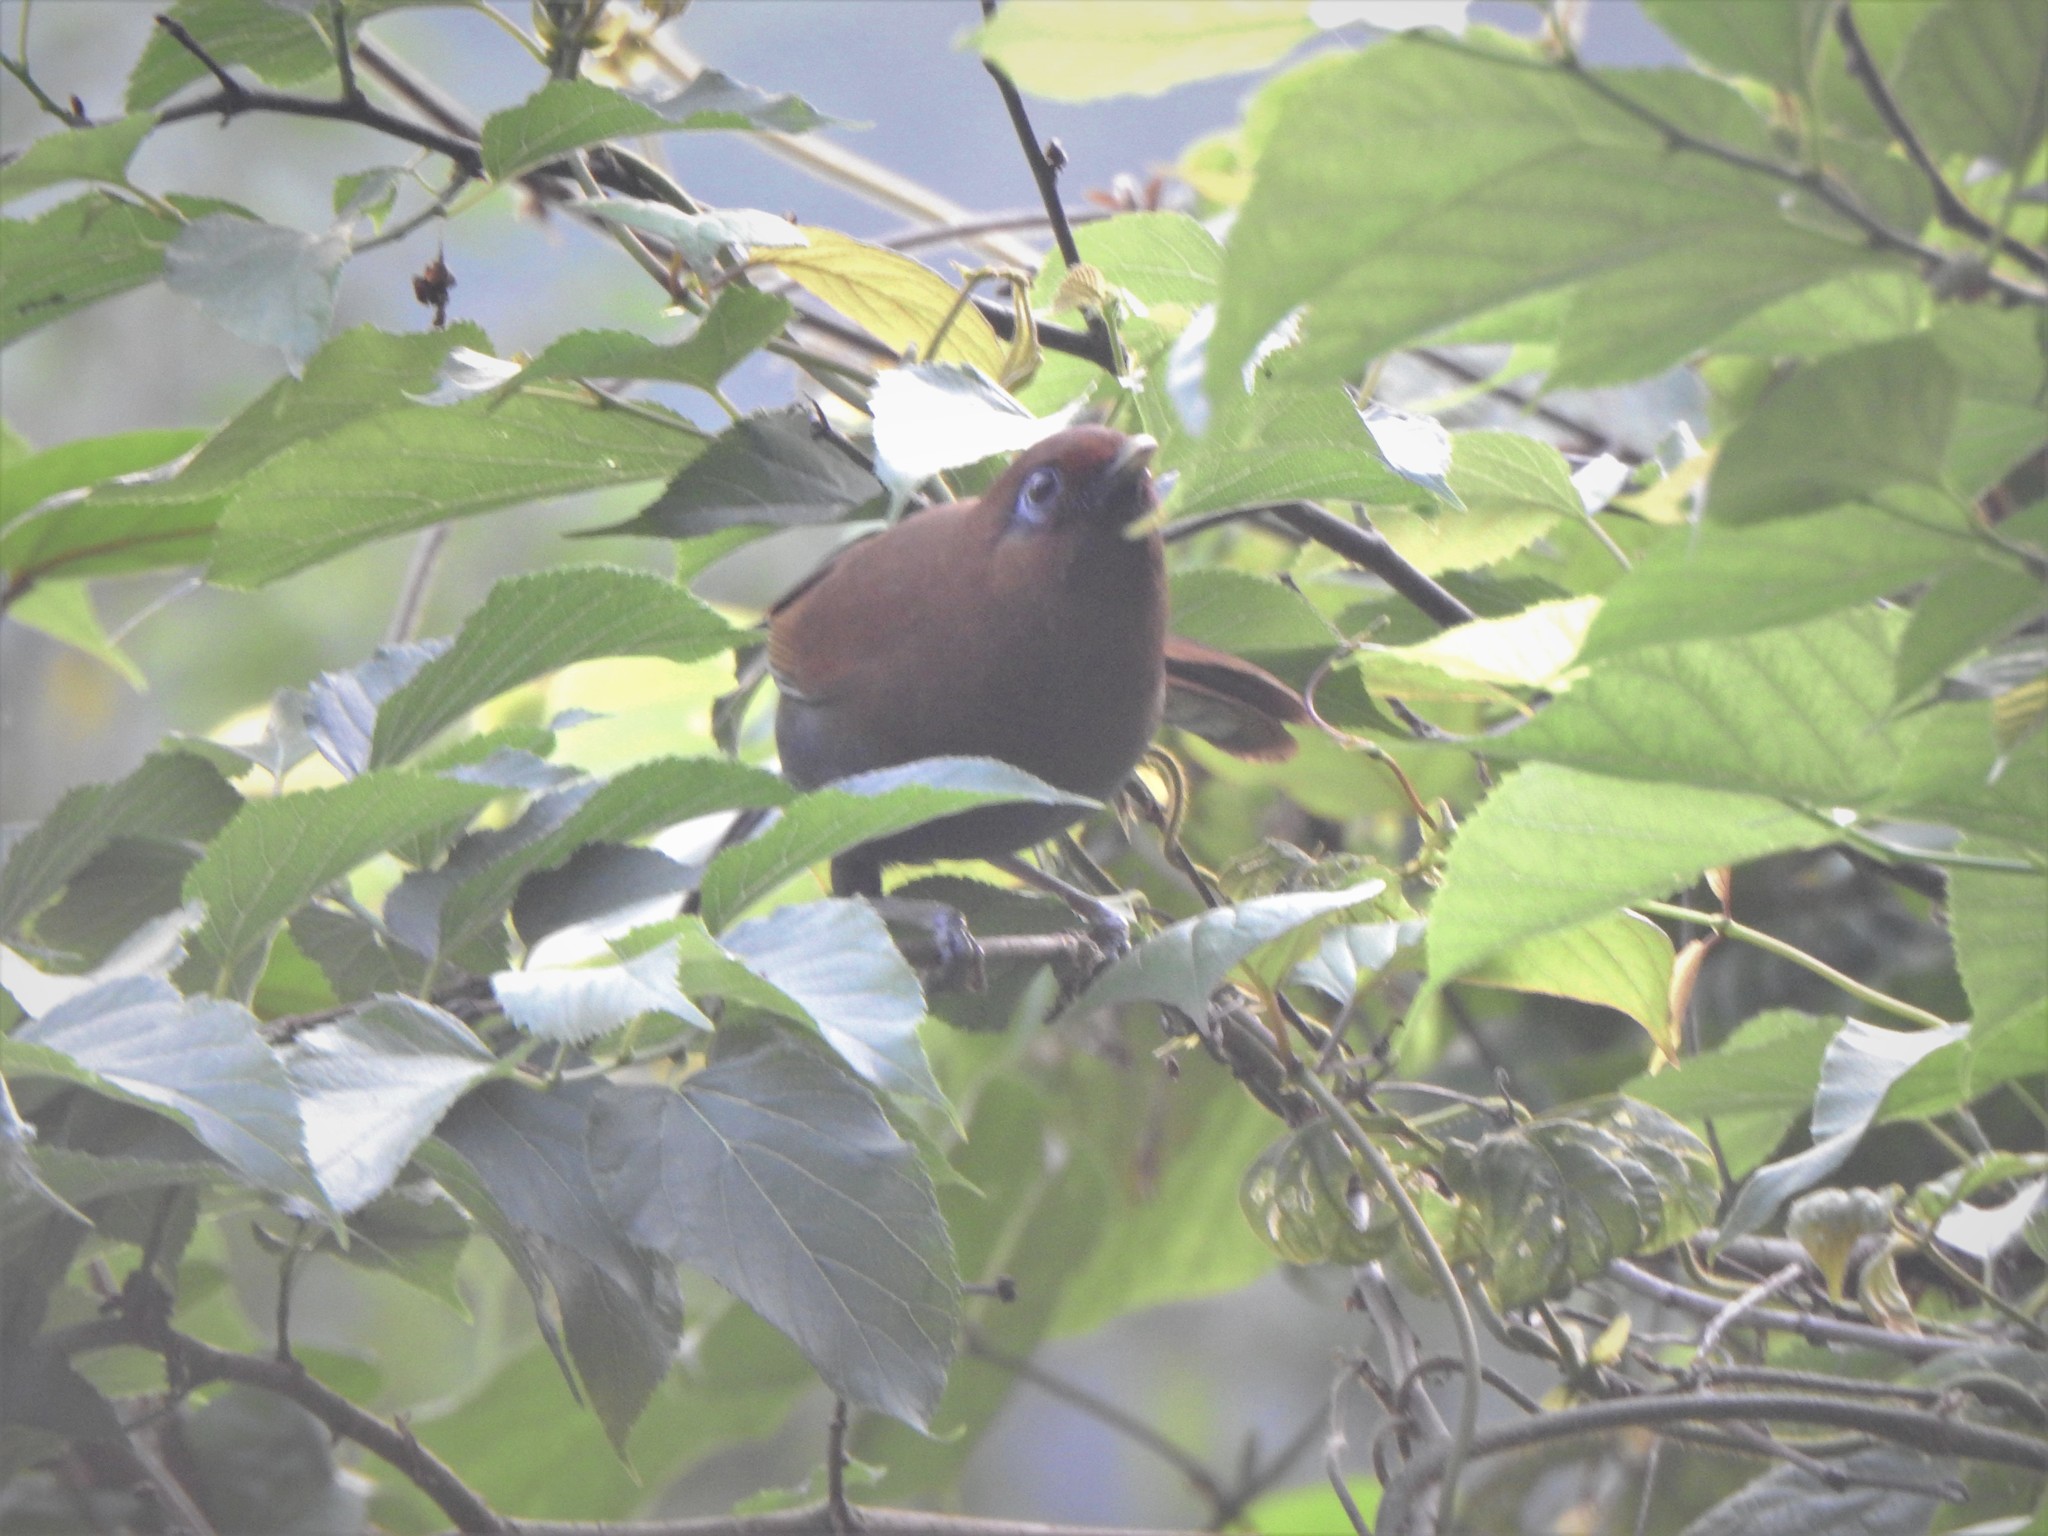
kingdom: Animalia
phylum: Chordata
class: Aves
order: Passeriformes
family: Leiothrichidae
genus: Garrulax
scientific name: Garrulax poecilorhynchus
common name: Rusty laughingthrush
